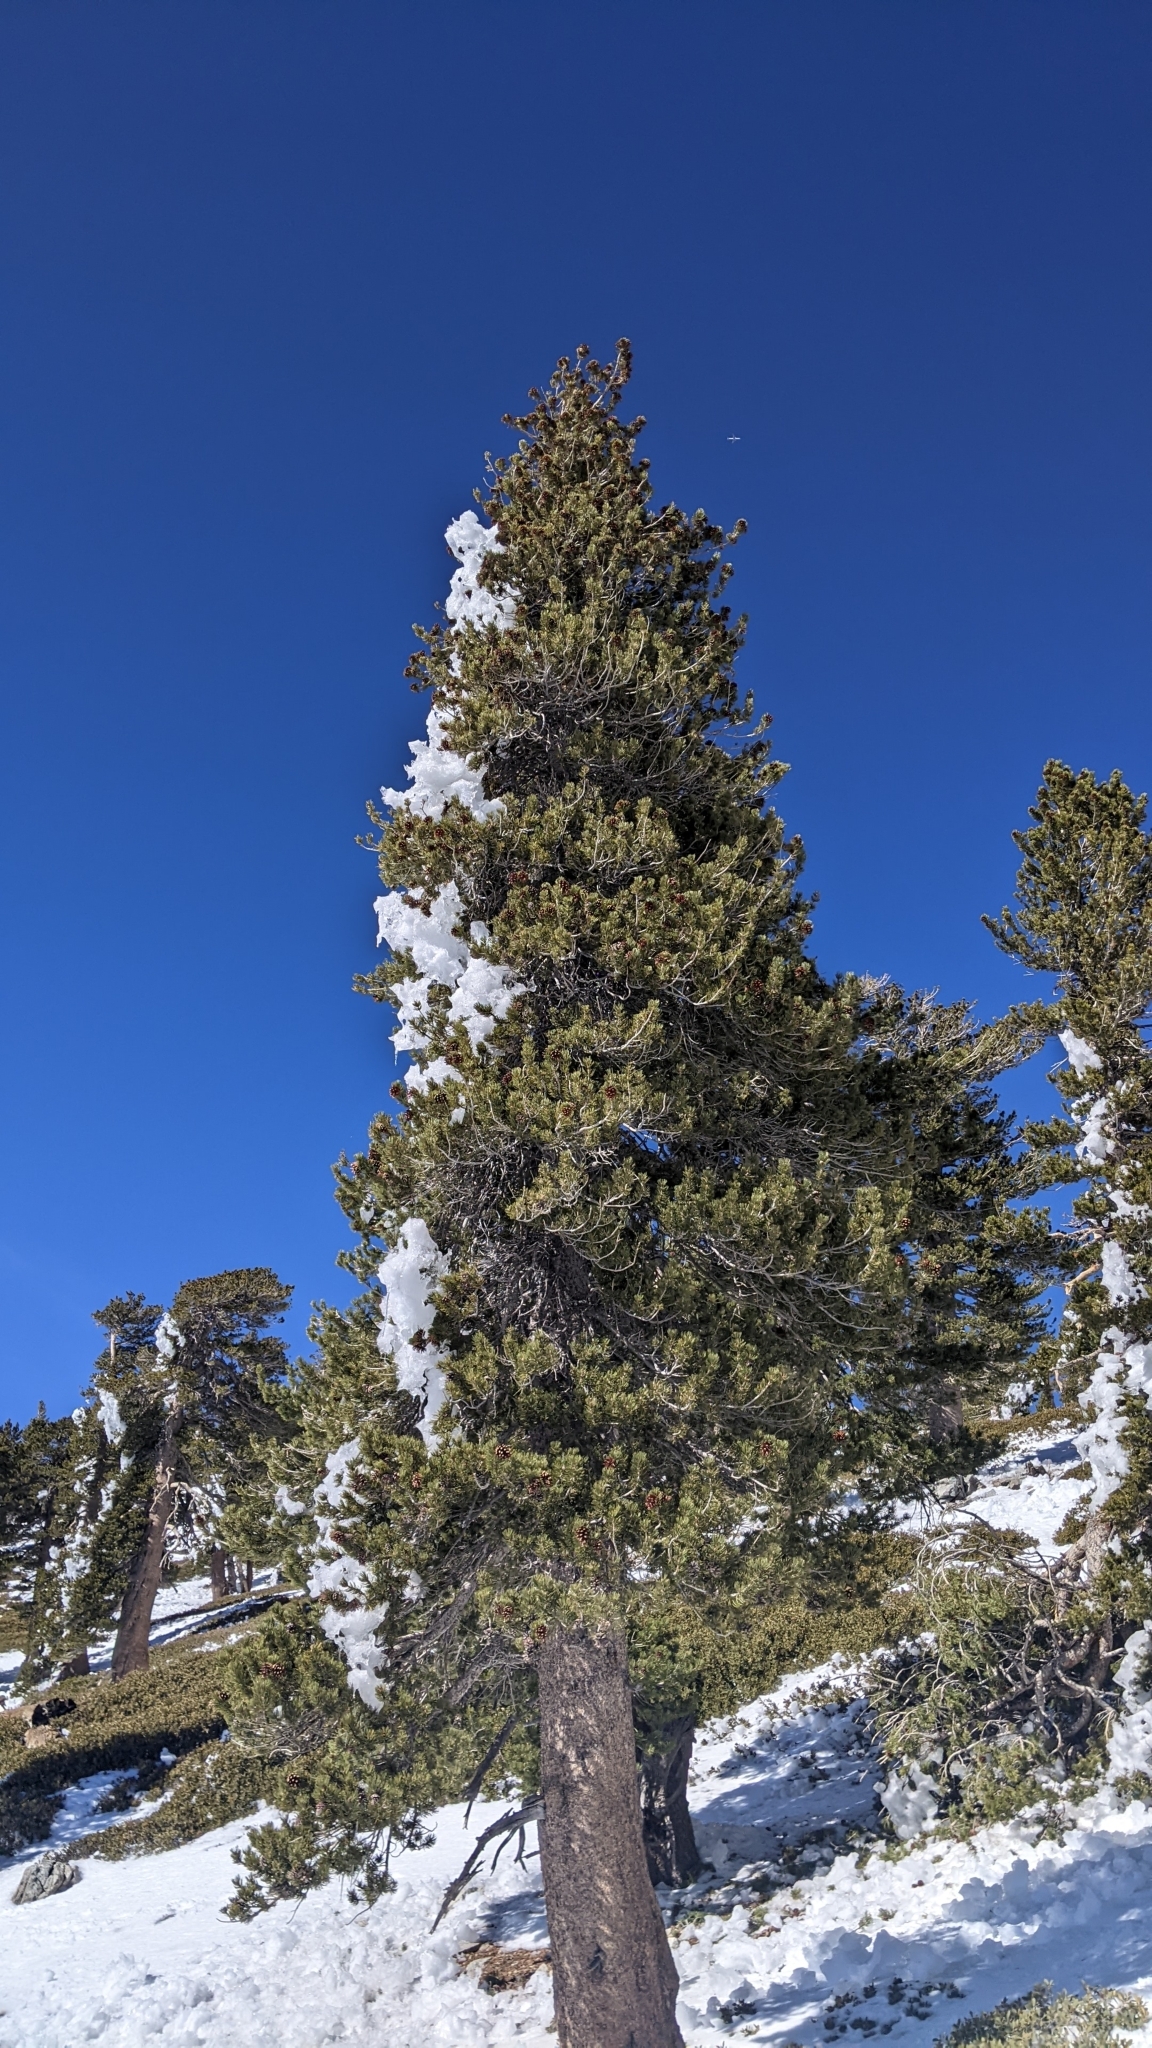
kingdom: Plantae
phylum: Tracheophyta
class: Pinopsida
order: Pinales
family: Pinaceae
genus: Pinus
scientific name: Pinus contorta
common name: Lodgepole pine
